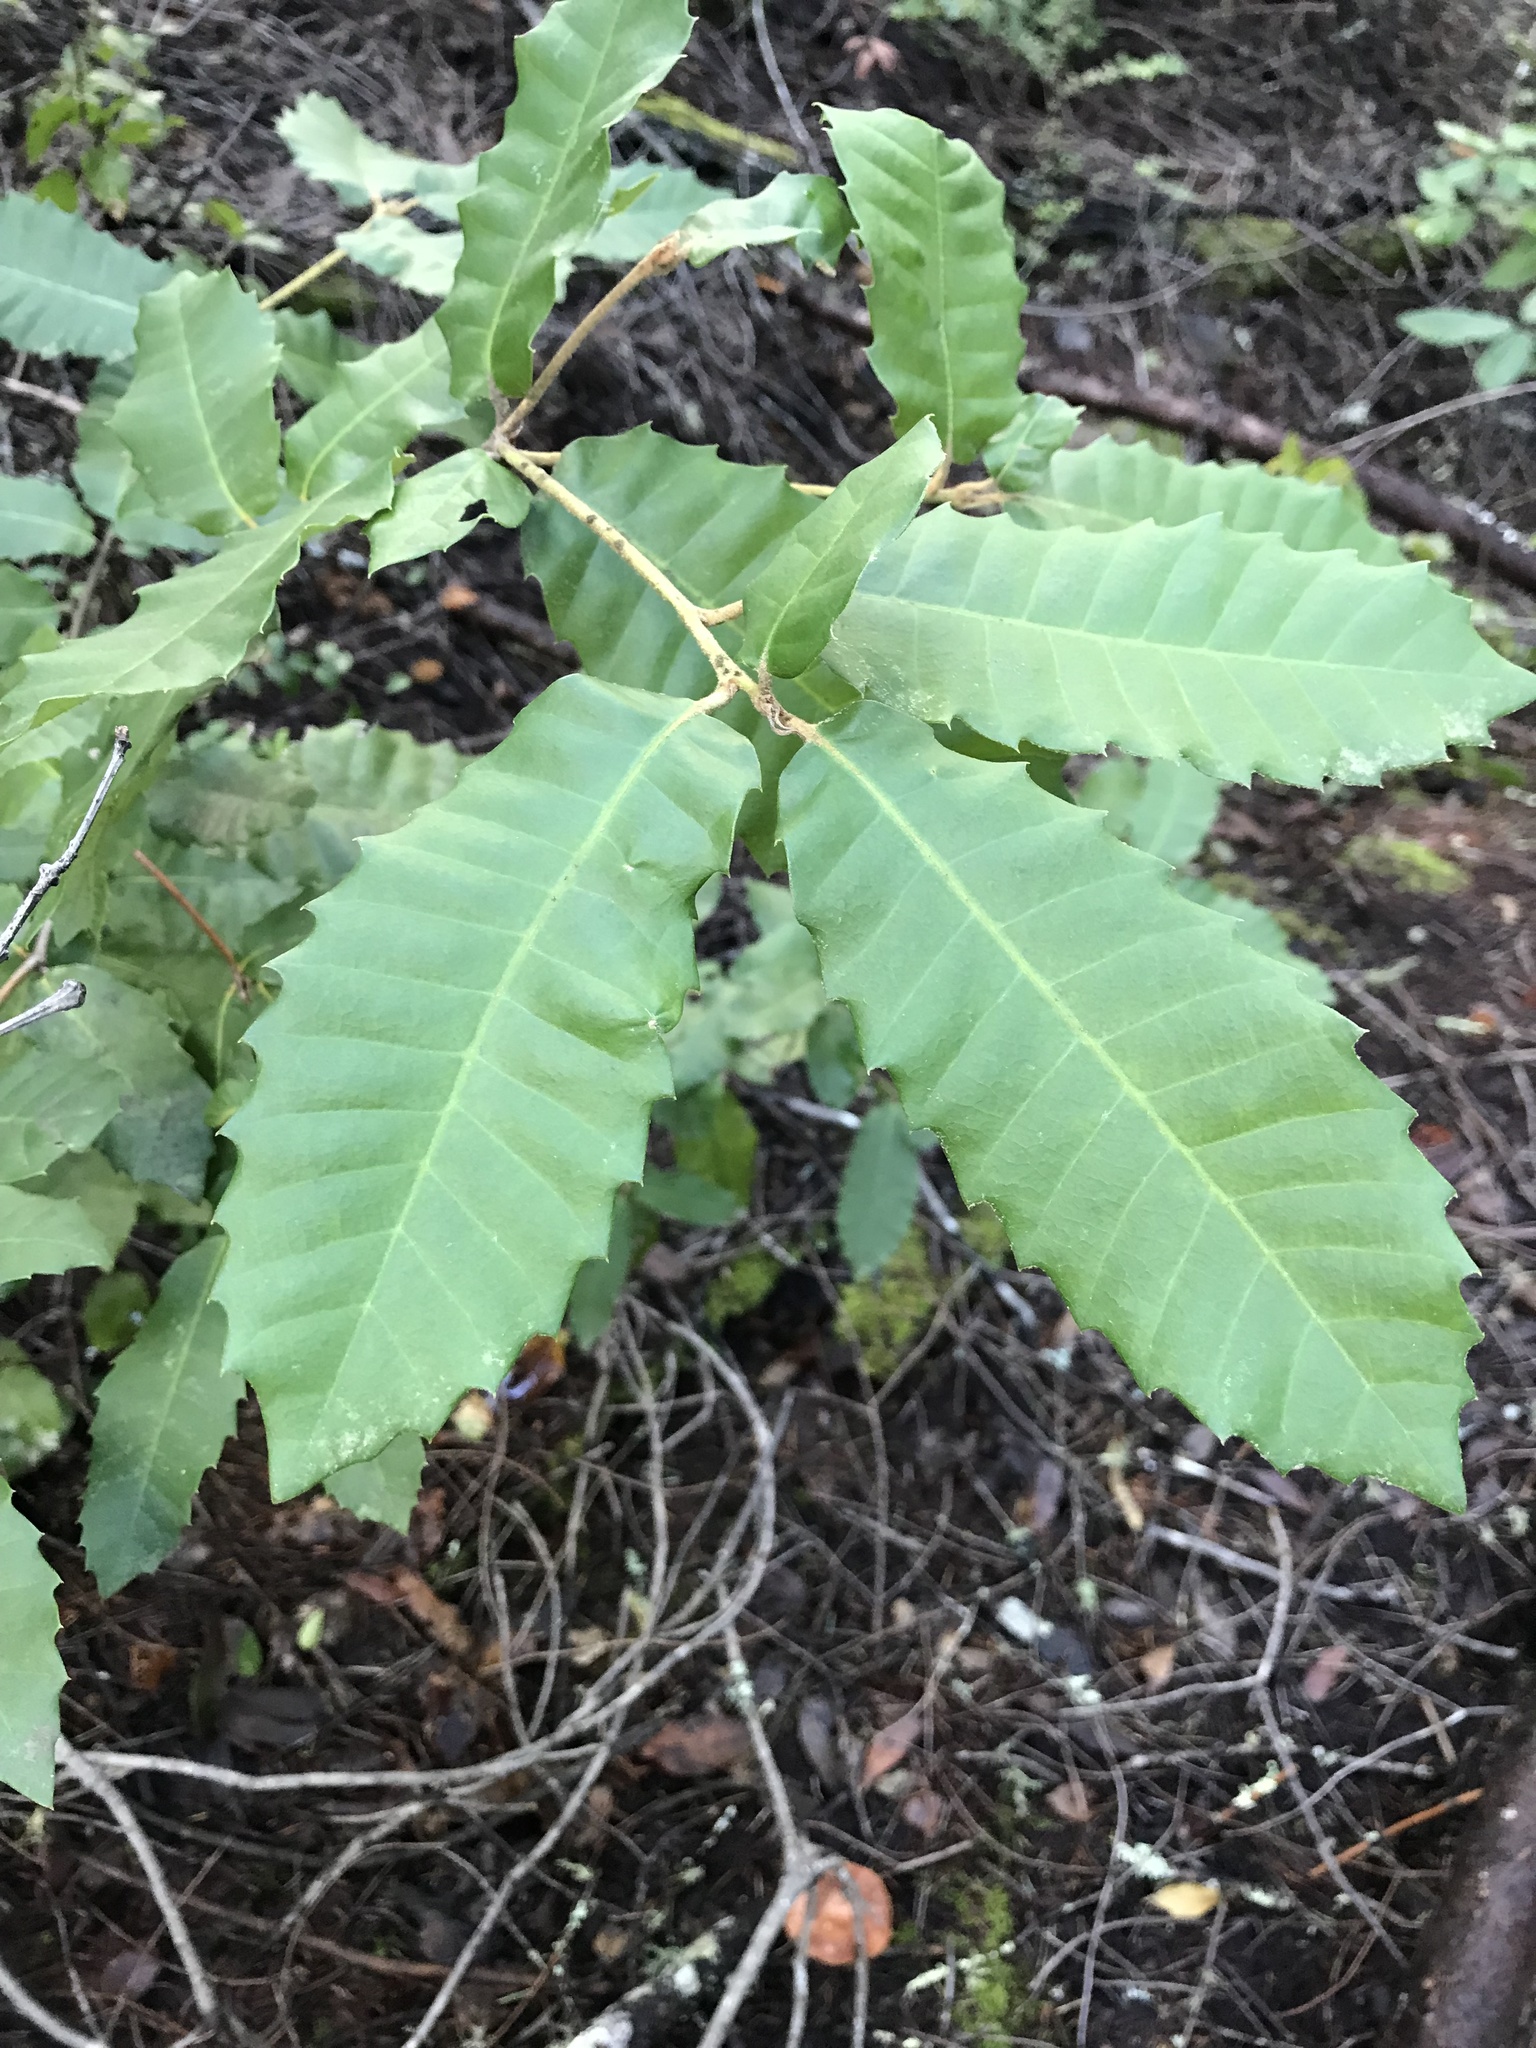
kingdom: Plantae
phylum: Tracheophyta
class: Magnoliopsida
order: Fagales
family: Fagaceae
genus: Notholithocarpus
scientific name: Notholithocarpus densiflorus
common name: Tan bark oak
